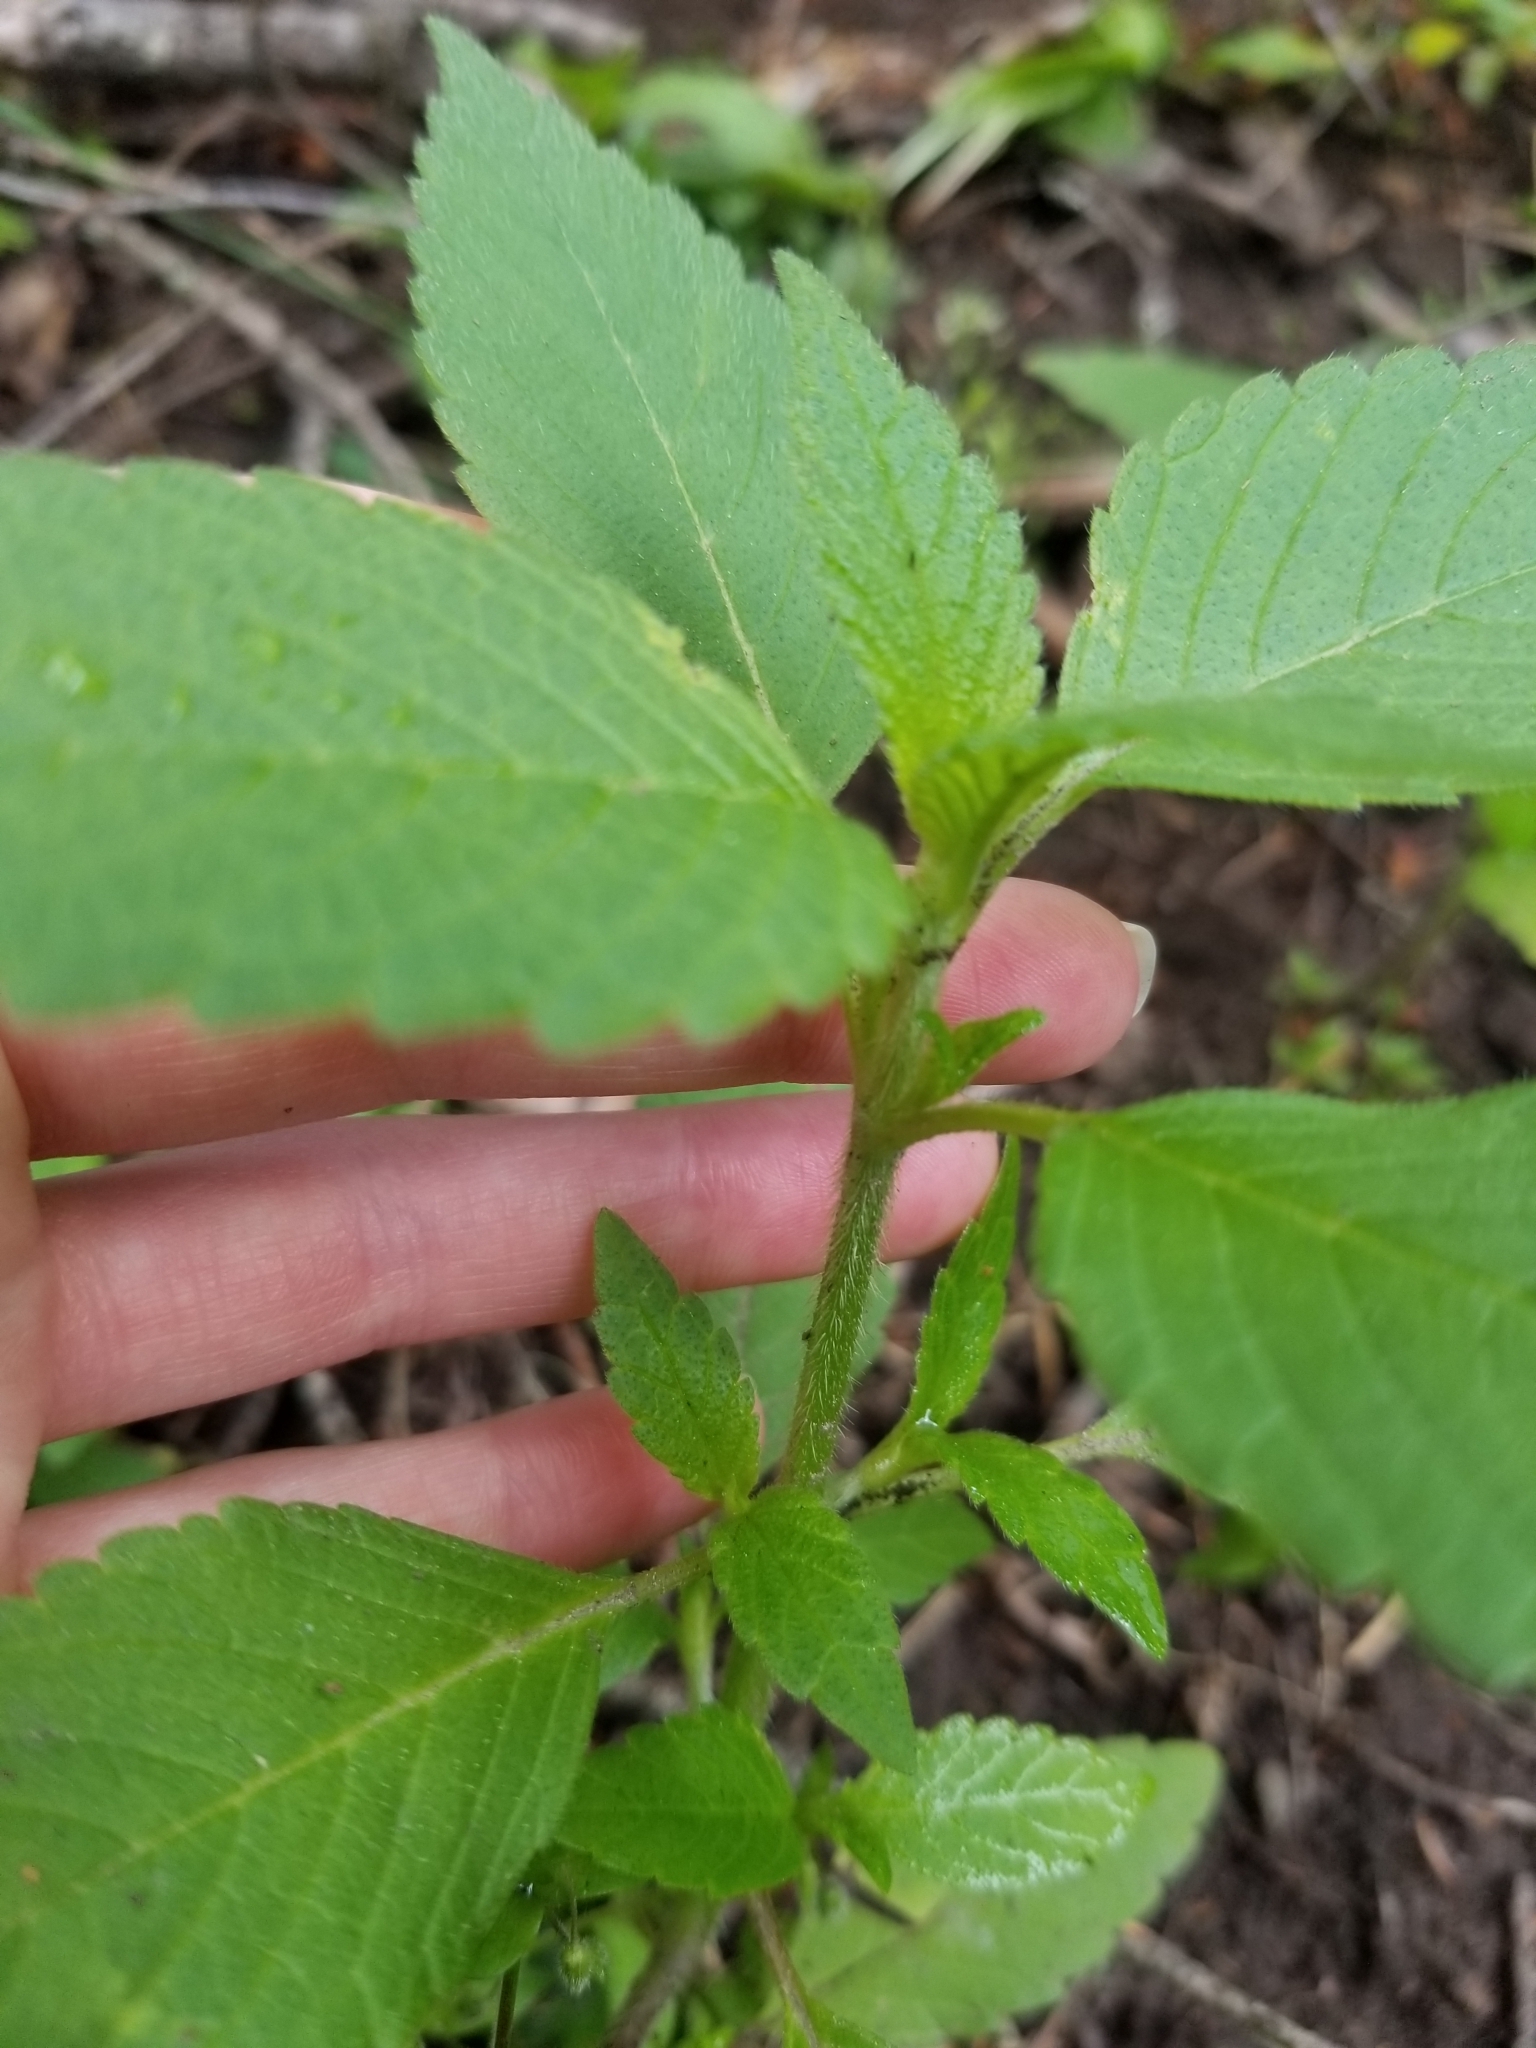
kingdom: Plantae
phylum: Tracheophyta
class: Magnoliopsida
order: Lamiales
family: Lamiaceae
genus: Galeopsis
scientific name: Galeopsis
